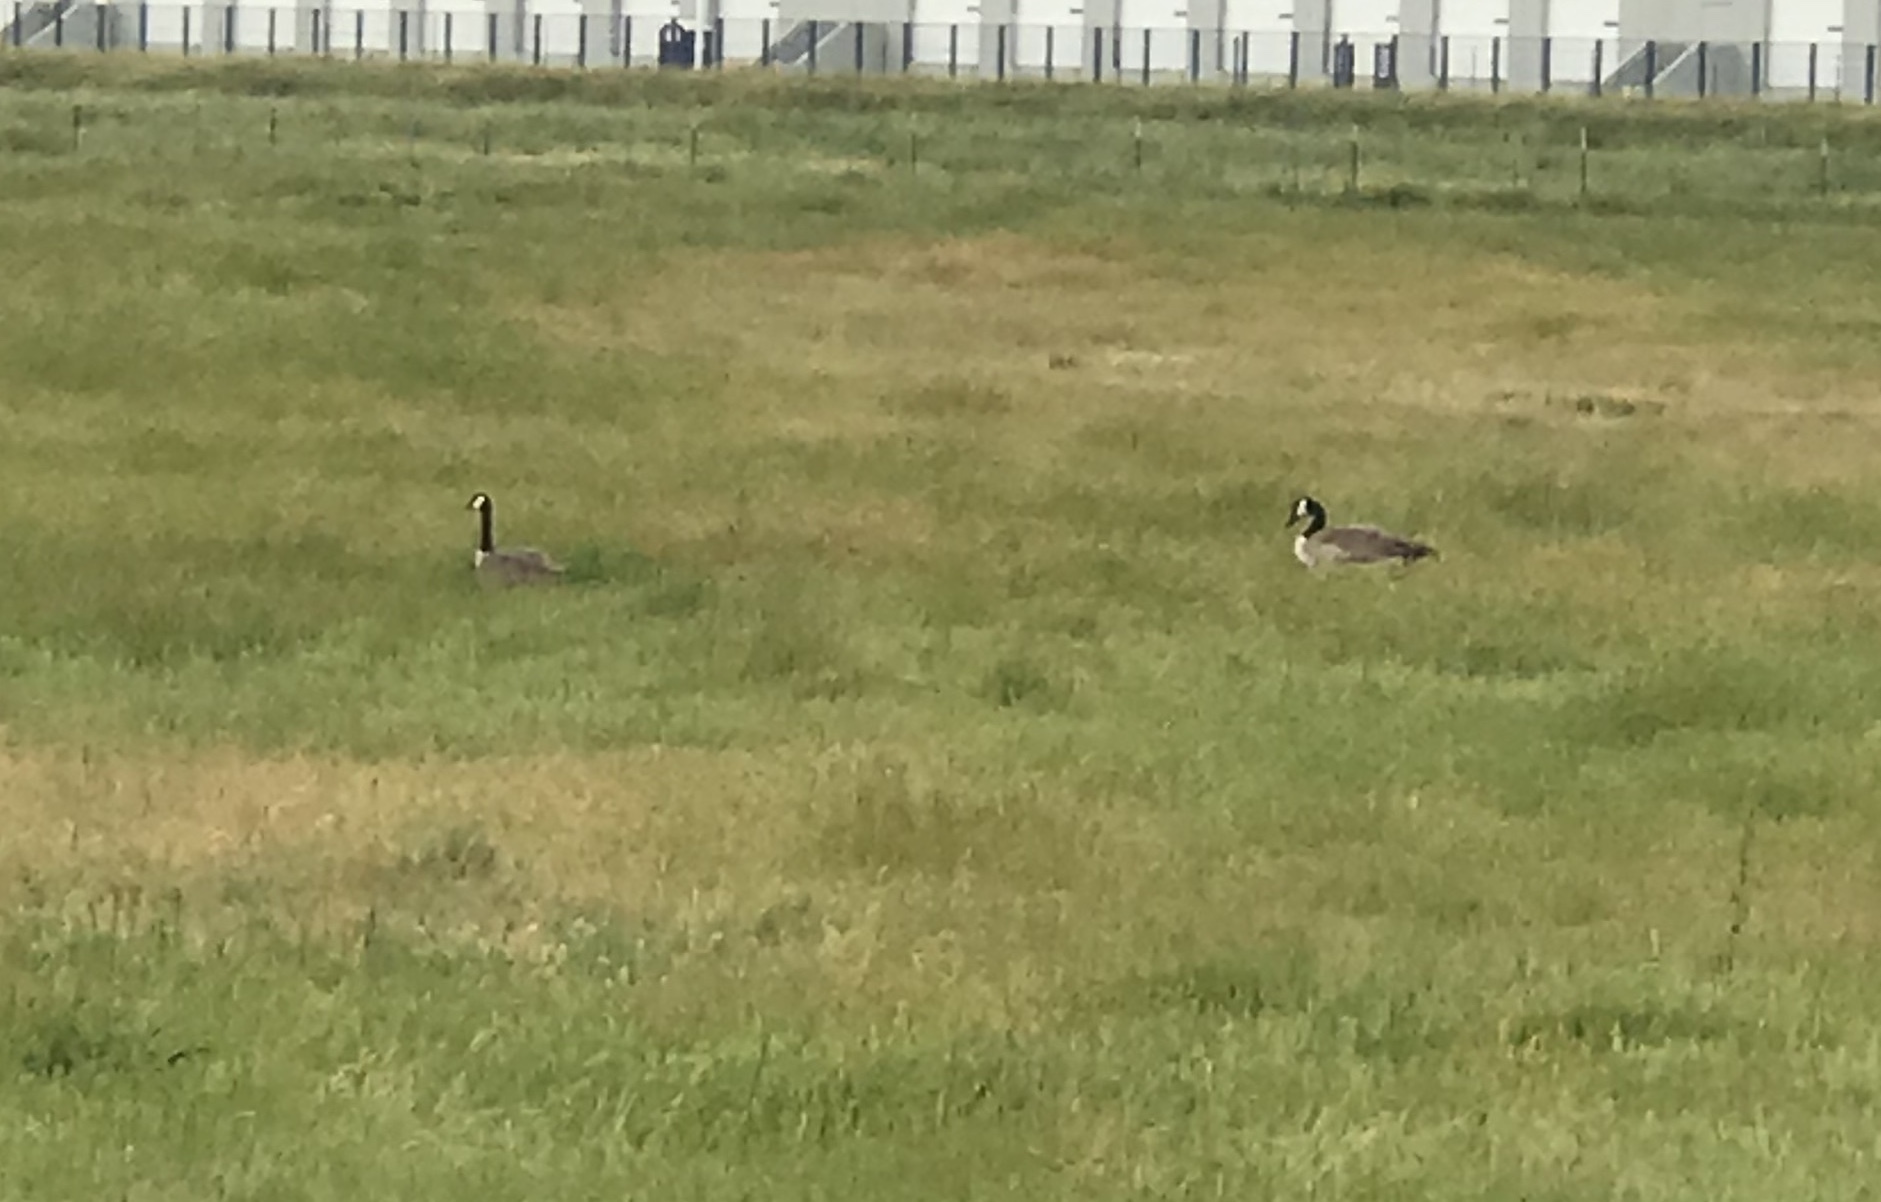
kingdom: Animalia
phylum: Chordata
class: Aves
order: Anseriformes
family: Anatidae
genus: Branta
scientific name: Branta canadensis
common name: Canada goose
